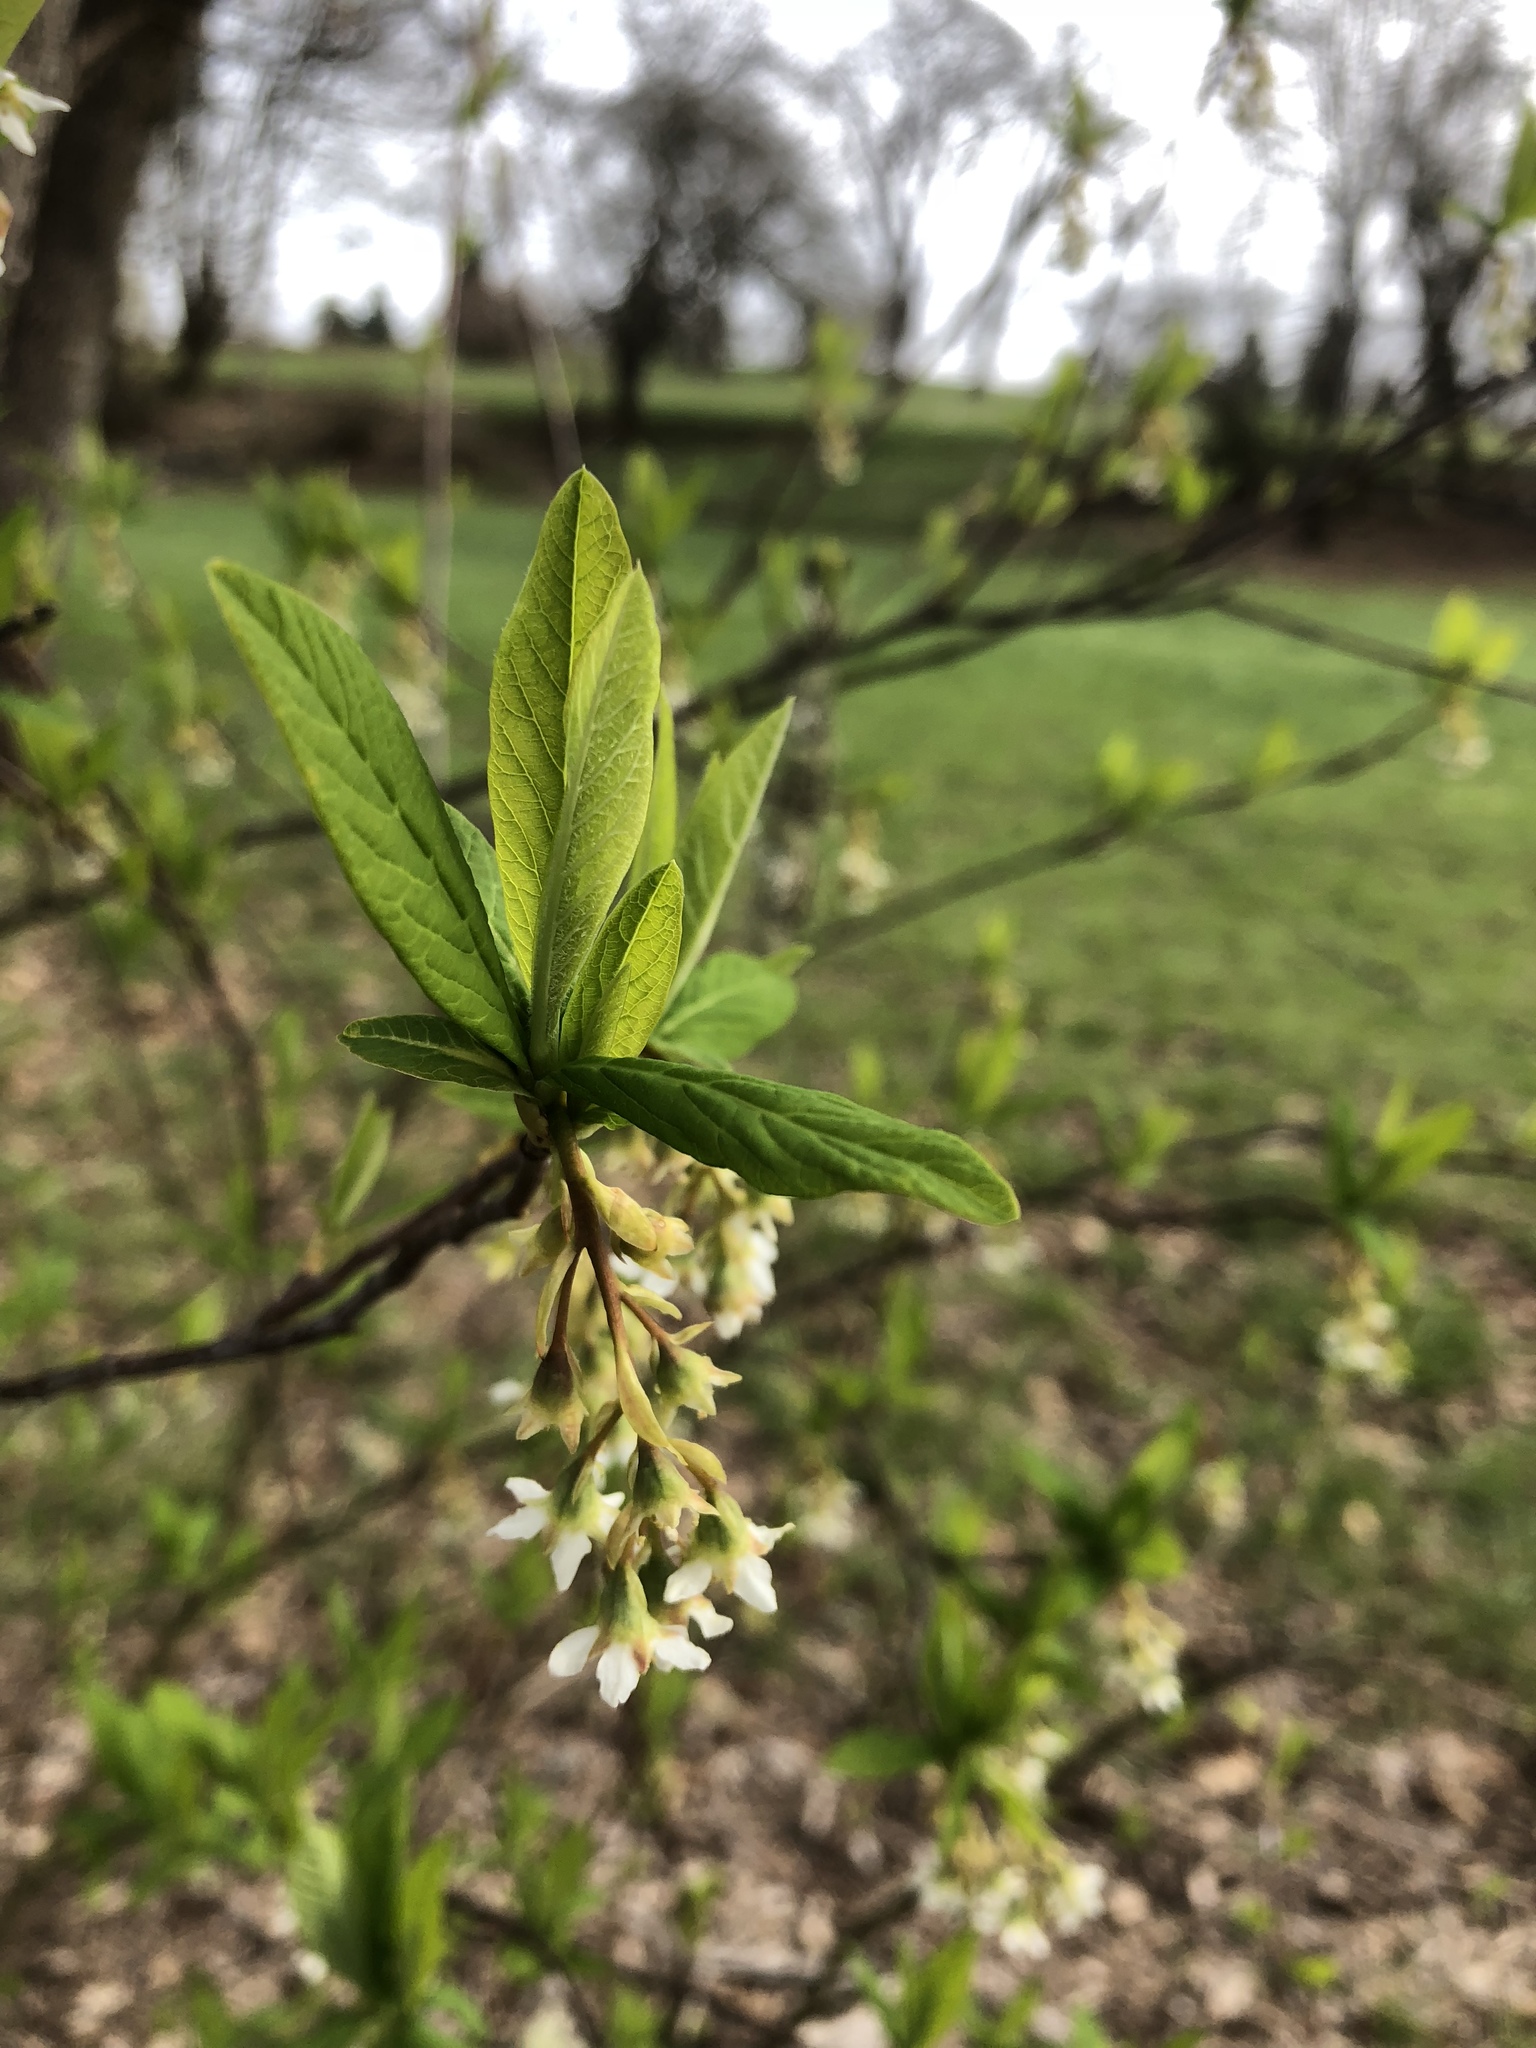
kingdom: Plantae
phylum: Tracheophyta
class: Magnoliopsida
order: Rosales
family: Rosaceae
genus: Oemleria
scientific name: Oemleria cerasiformis
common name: Osoberry
